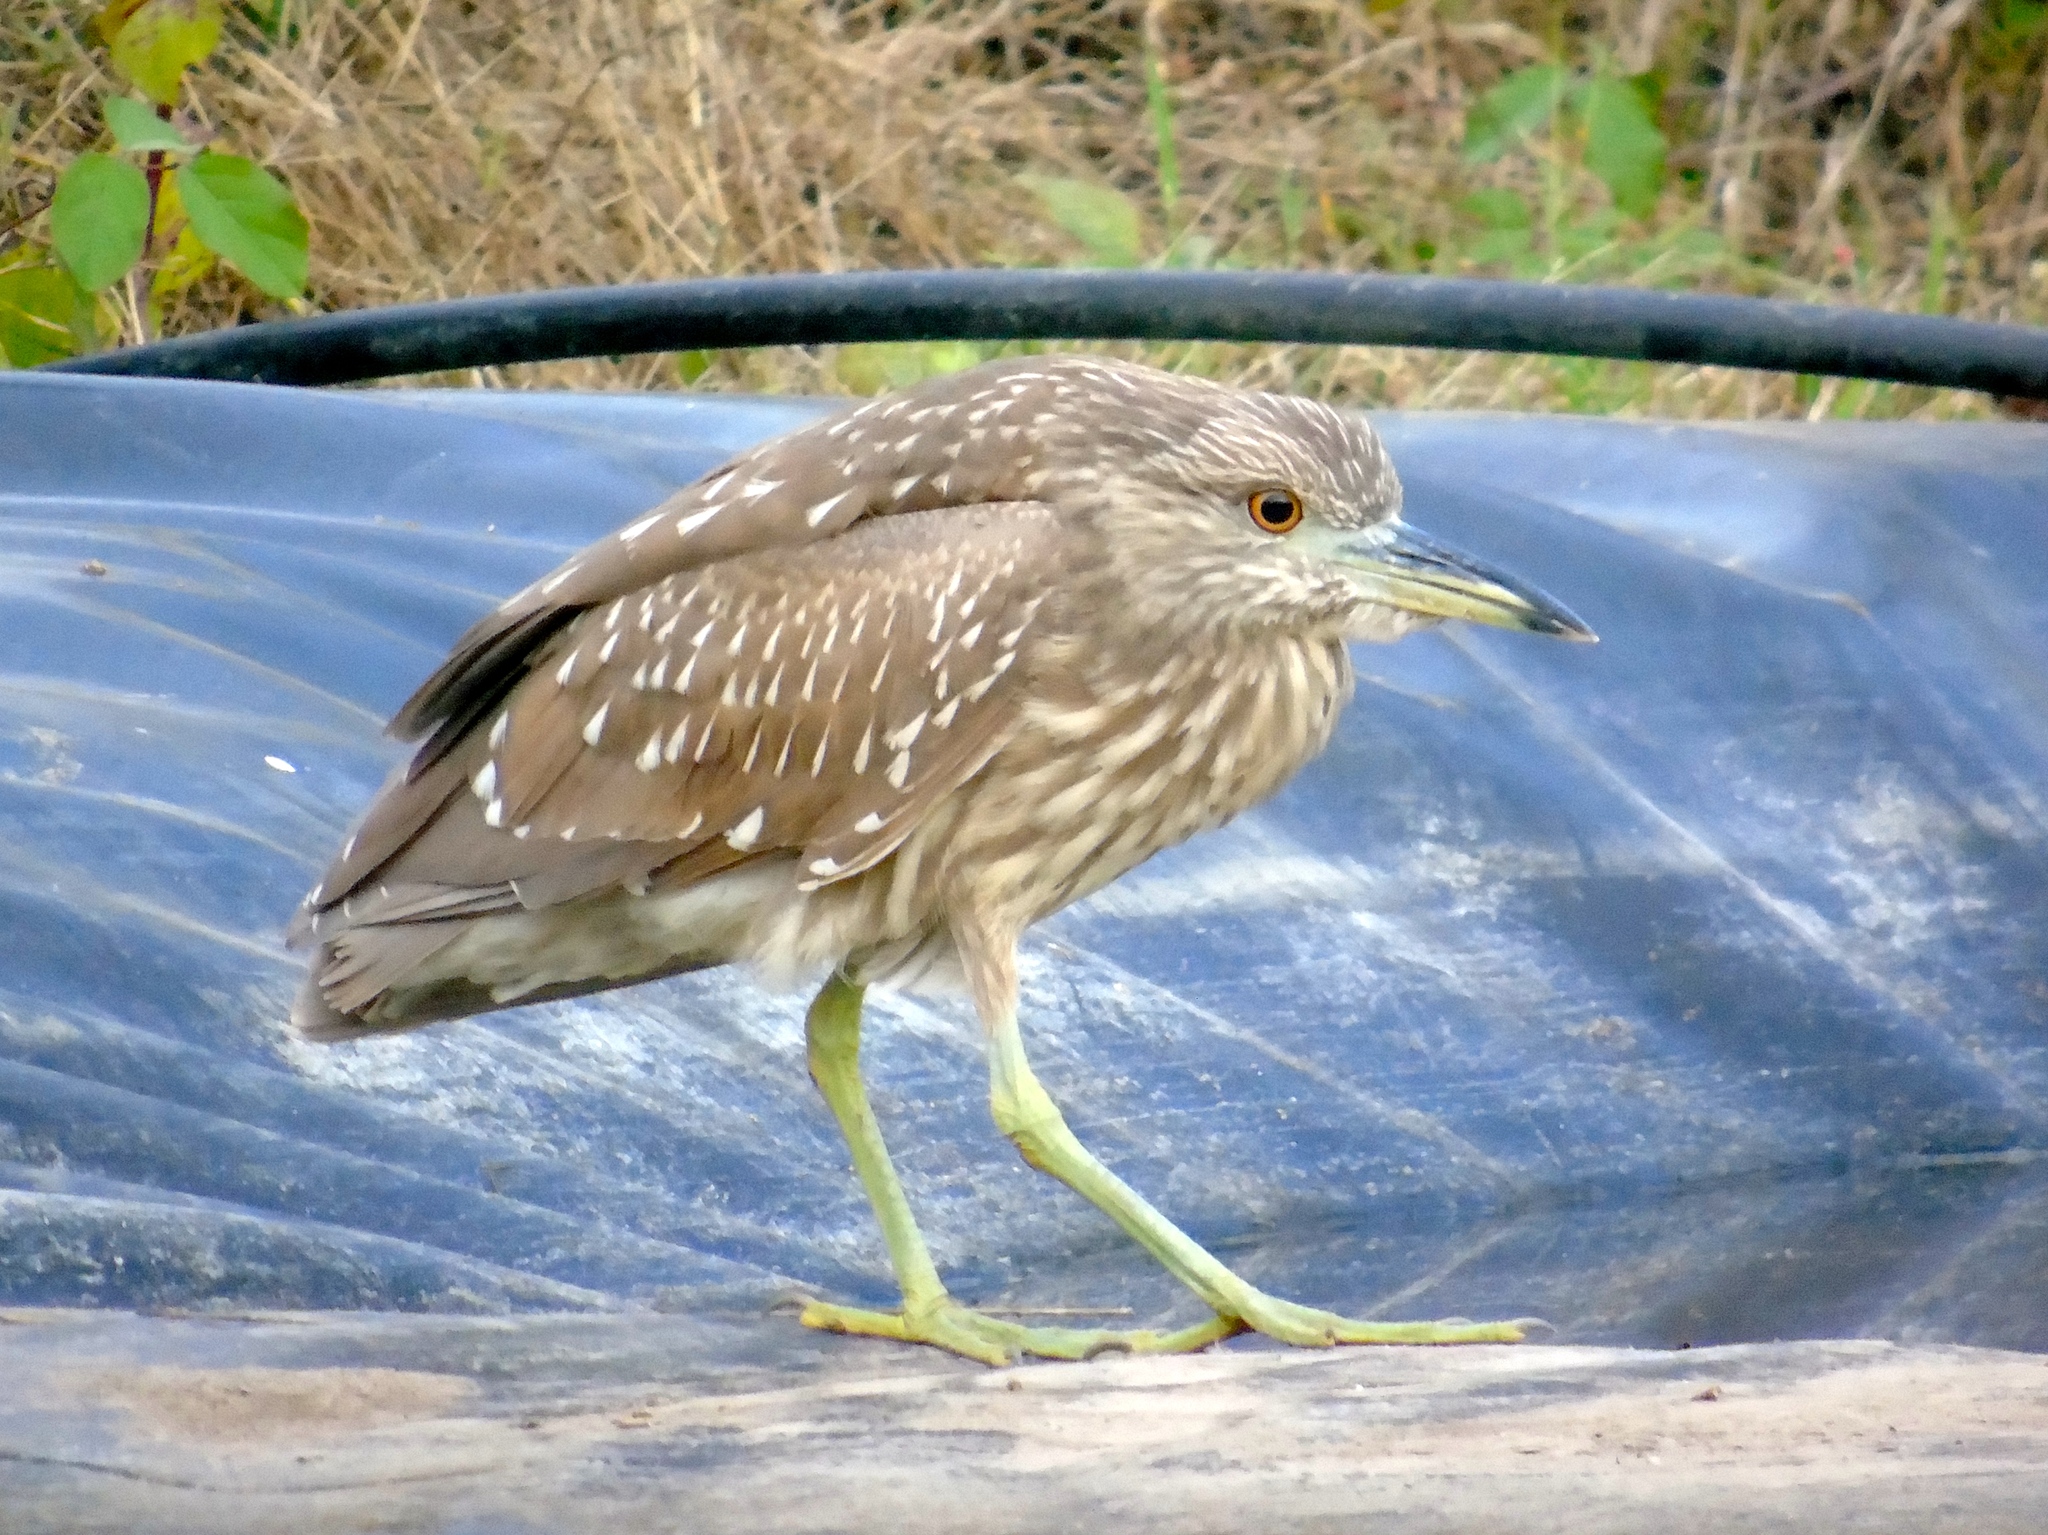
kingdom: Animalia
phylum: Chordata
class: Aves
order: Pelecaniformes
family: Ardeidae
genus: Nycticorax
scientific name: Nycticorax nycticorax
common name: Black-crowned night heron
